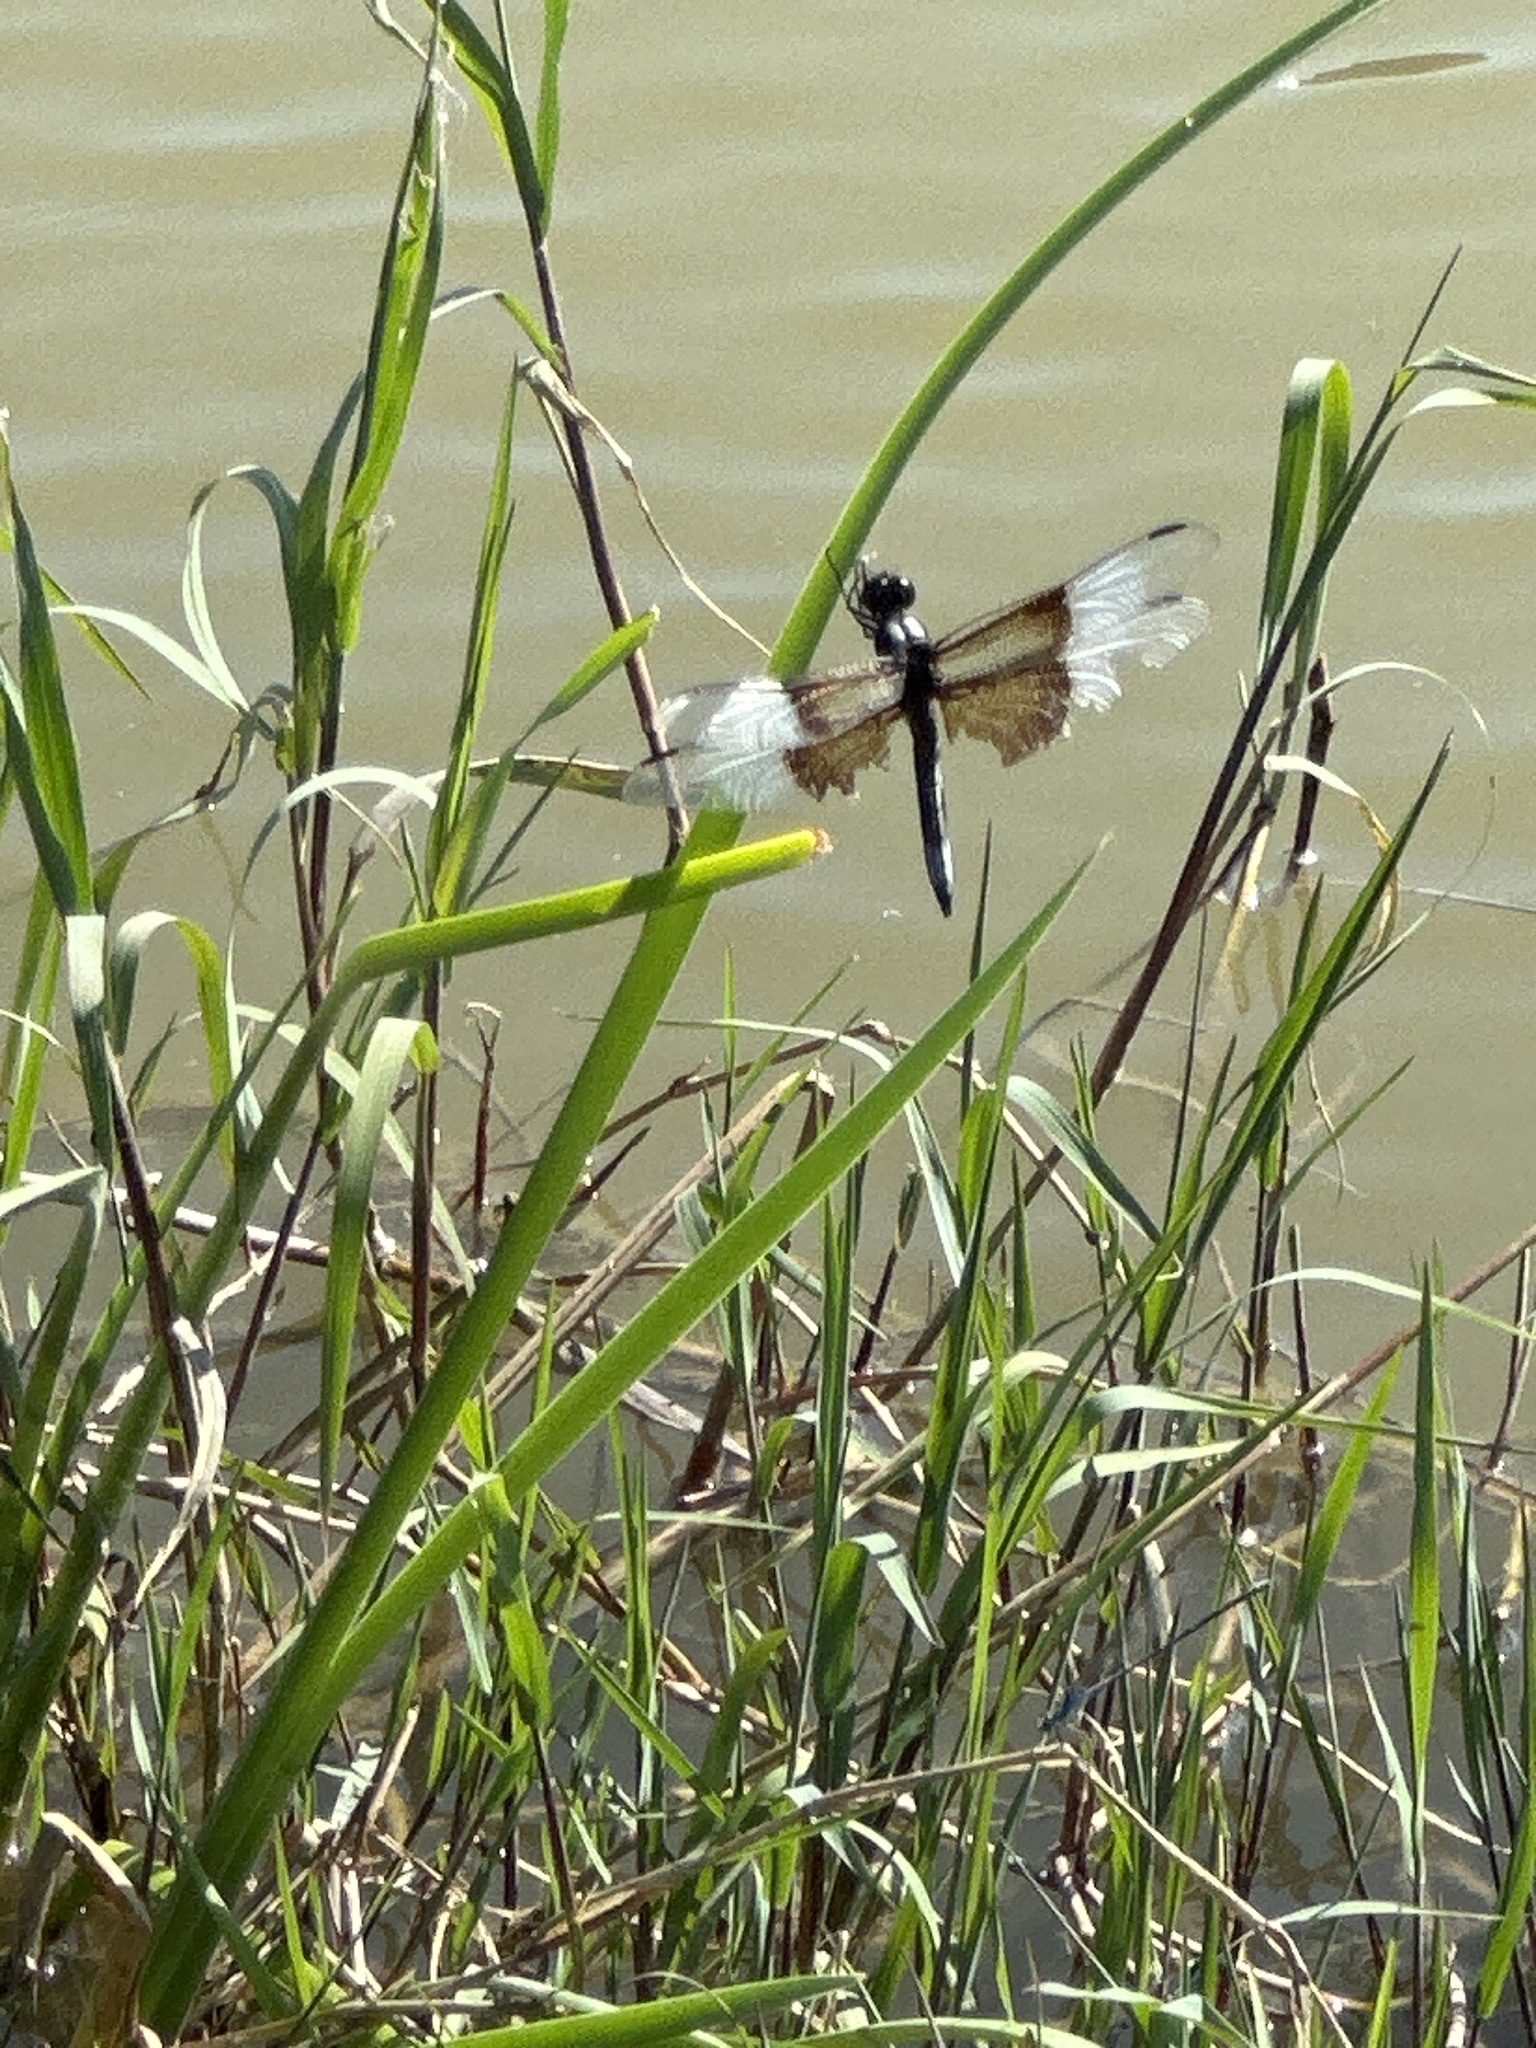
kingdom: Animalia
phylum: Arthropoda
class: Insecta
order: Odonata
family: Libellulidae
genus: Libellula
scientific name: Libellula luctuosa
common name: Widow skimmer
